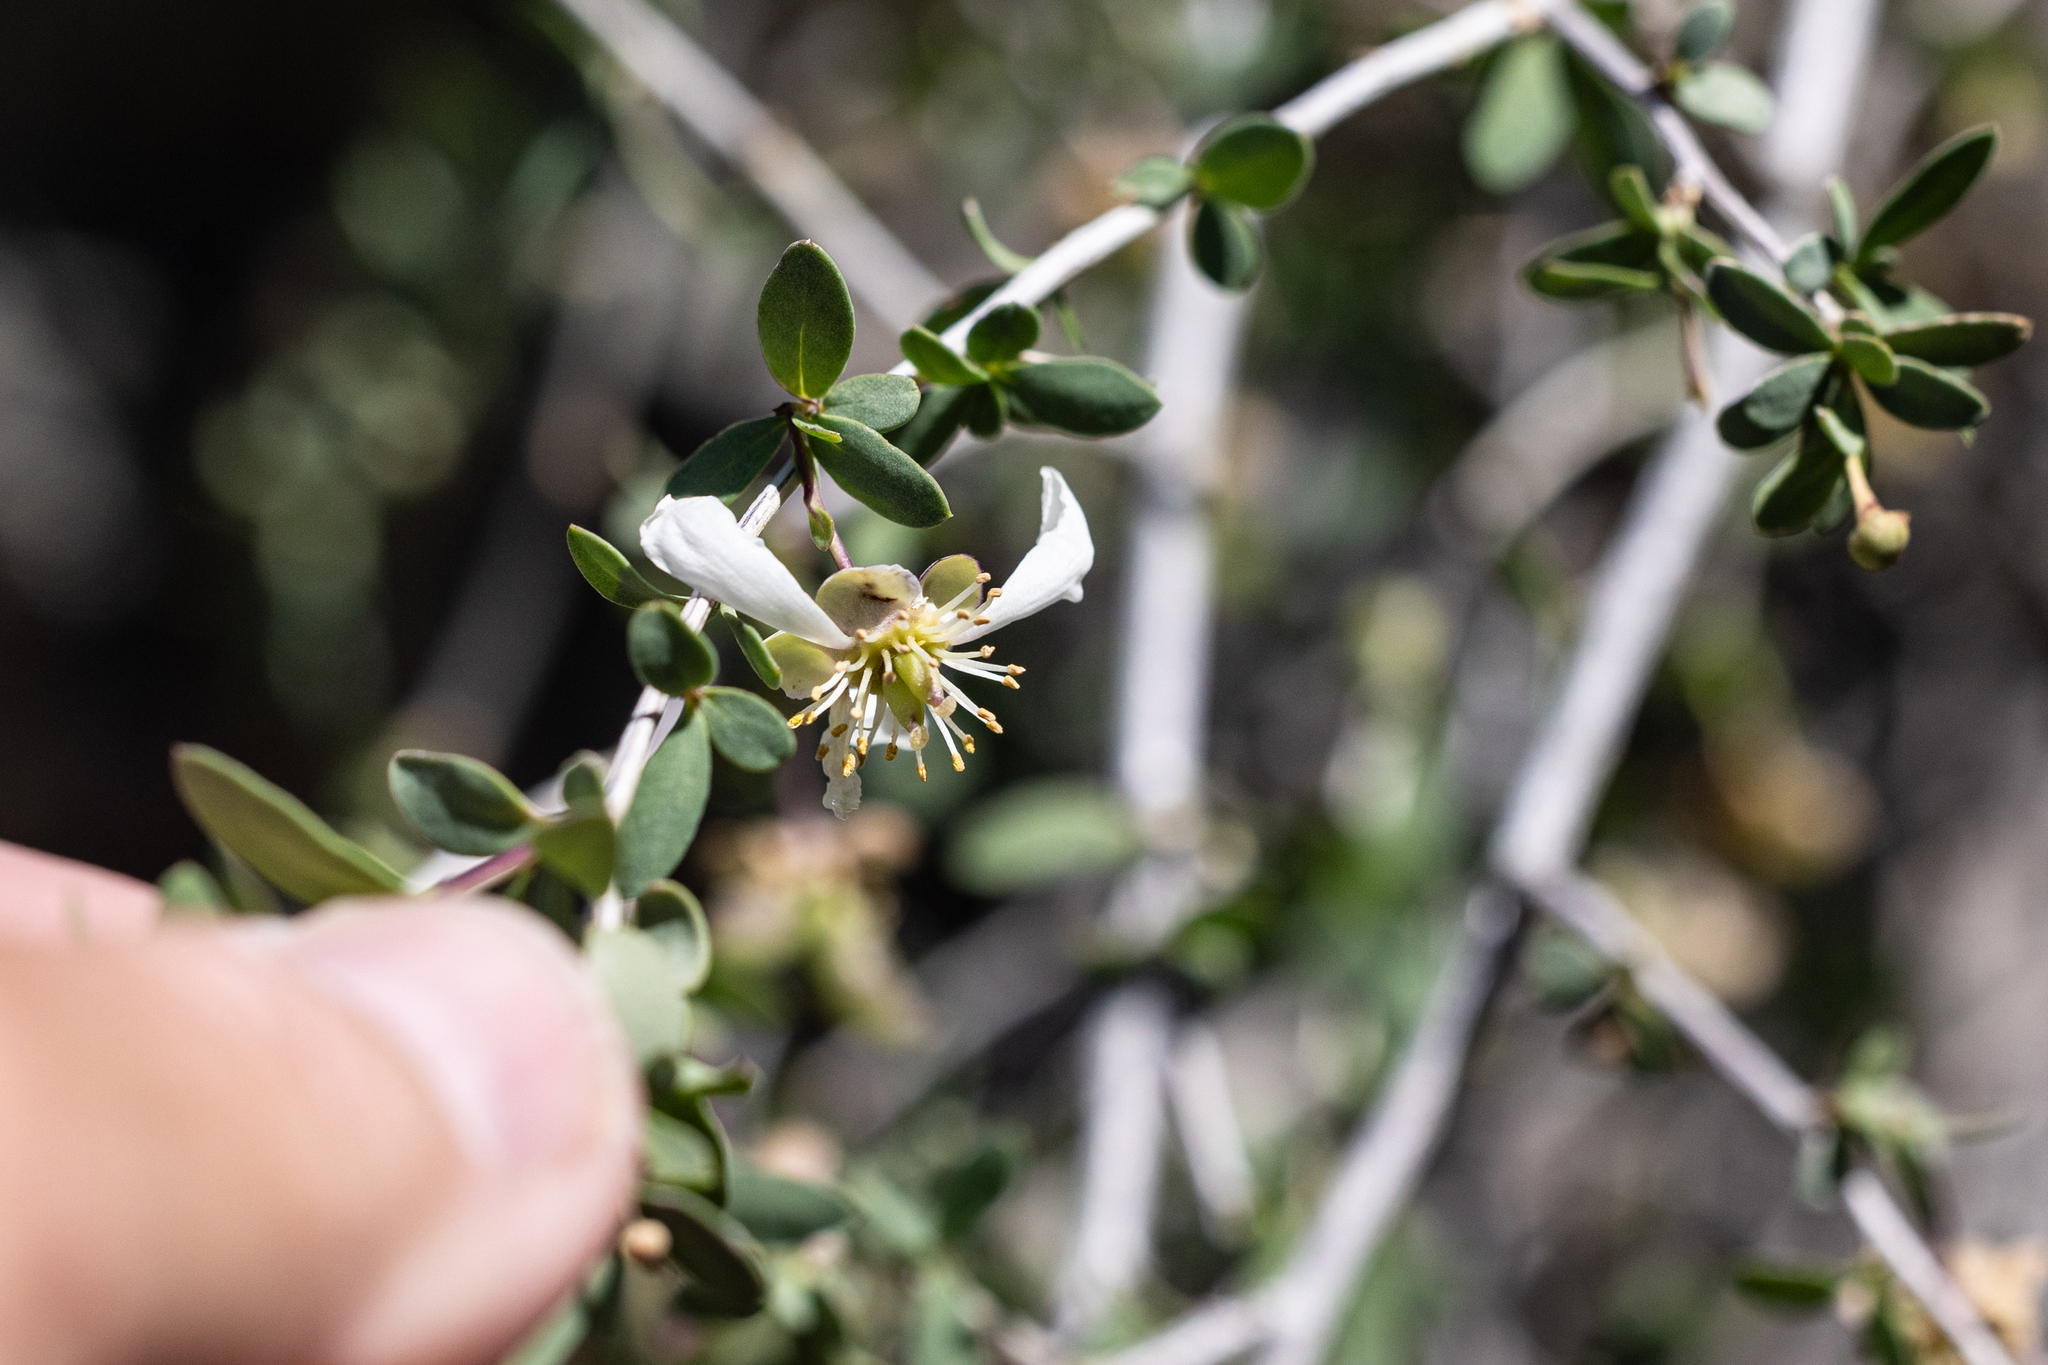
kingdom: Plantae
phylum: Tracheophyta
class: Magnoliopsida
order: Crossosomatales
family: Crossosomataceae
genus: Crossosoma
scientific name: Crossosoma bigelovii
